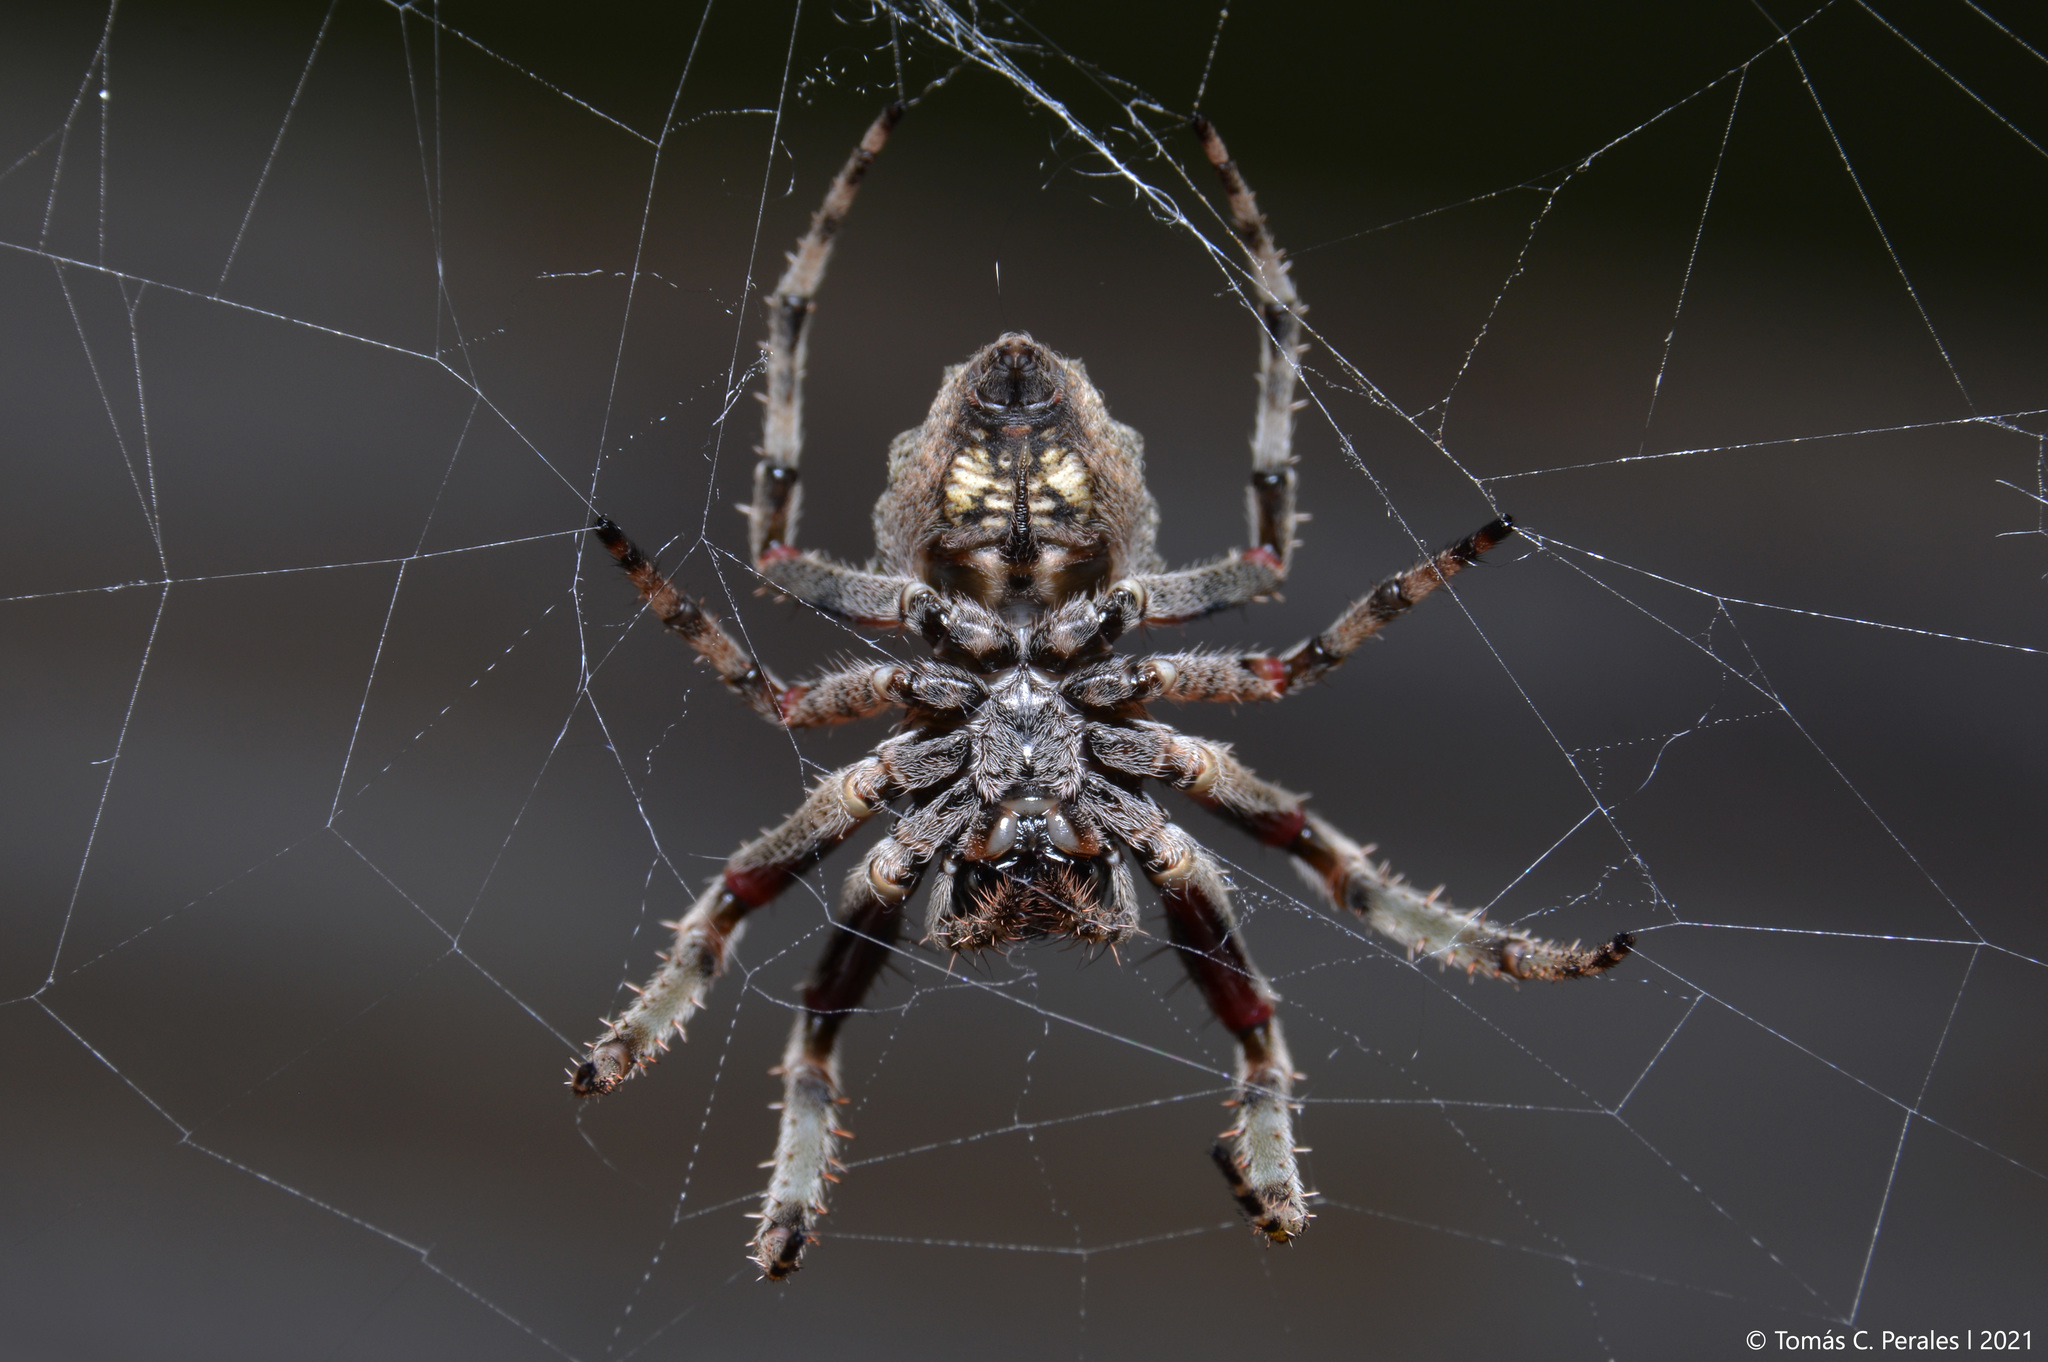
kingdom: Animalia
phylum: Arthropoda
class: Arachnida
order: Araneae
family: Araneidae
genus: Parawixia
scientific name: Parawixia audax
